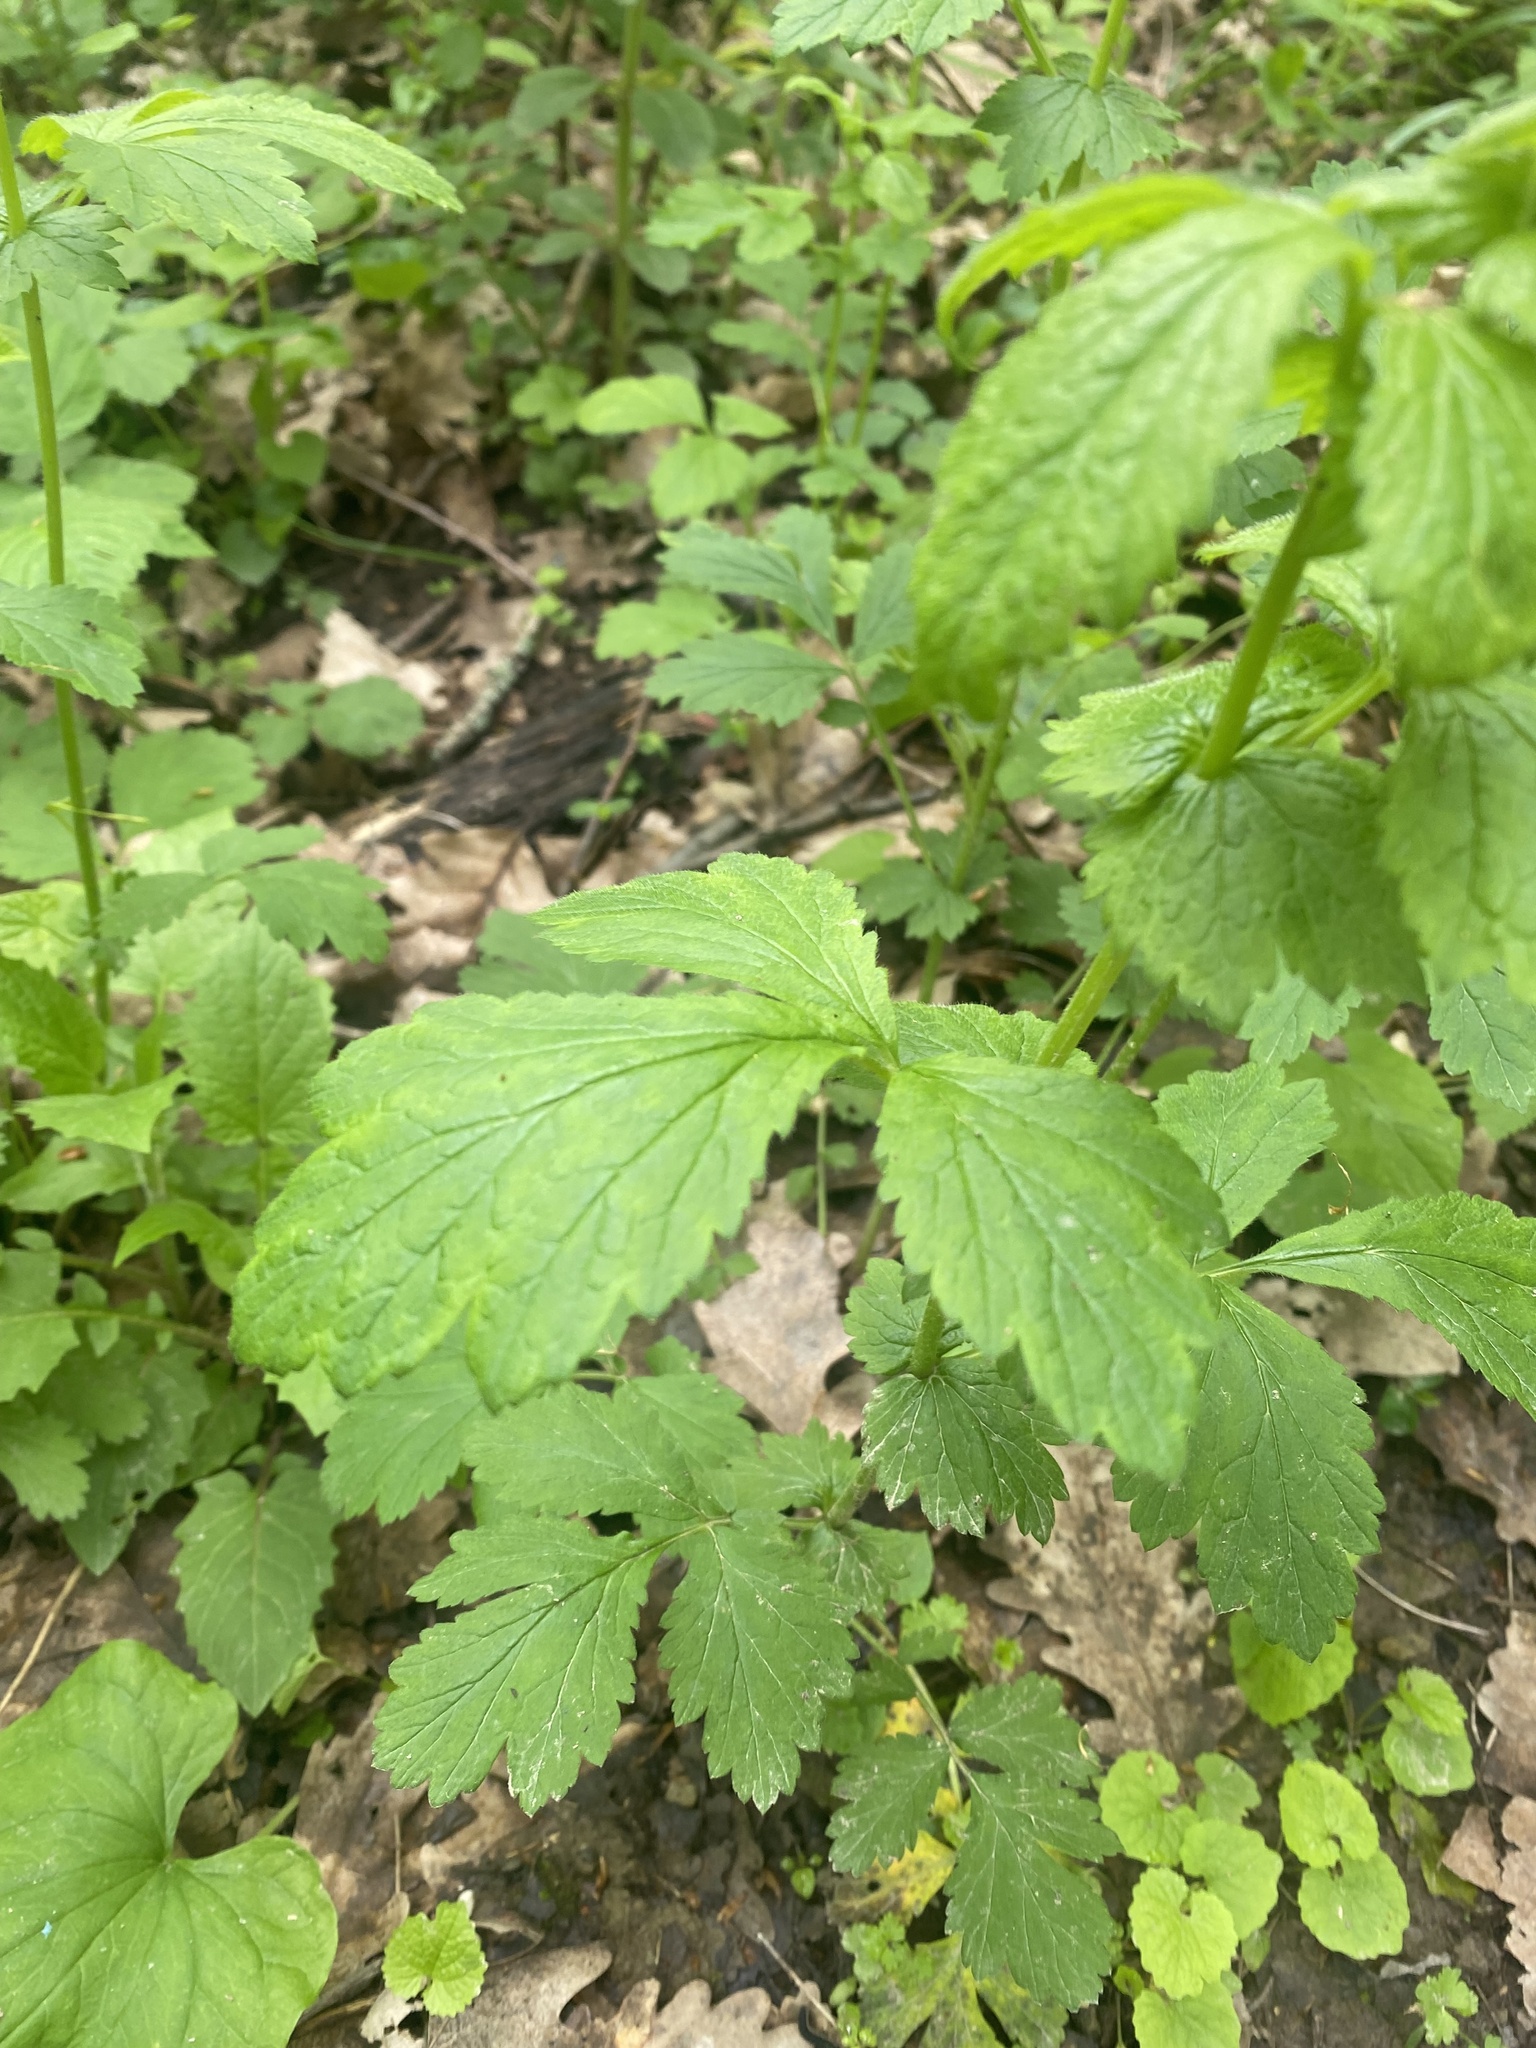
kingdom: Plantae
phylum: Tracheophyta
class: Magnoliopsida
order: Rosales
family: Rosaceae
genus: Geum
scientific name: Geum urbanum
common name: Wood avens
